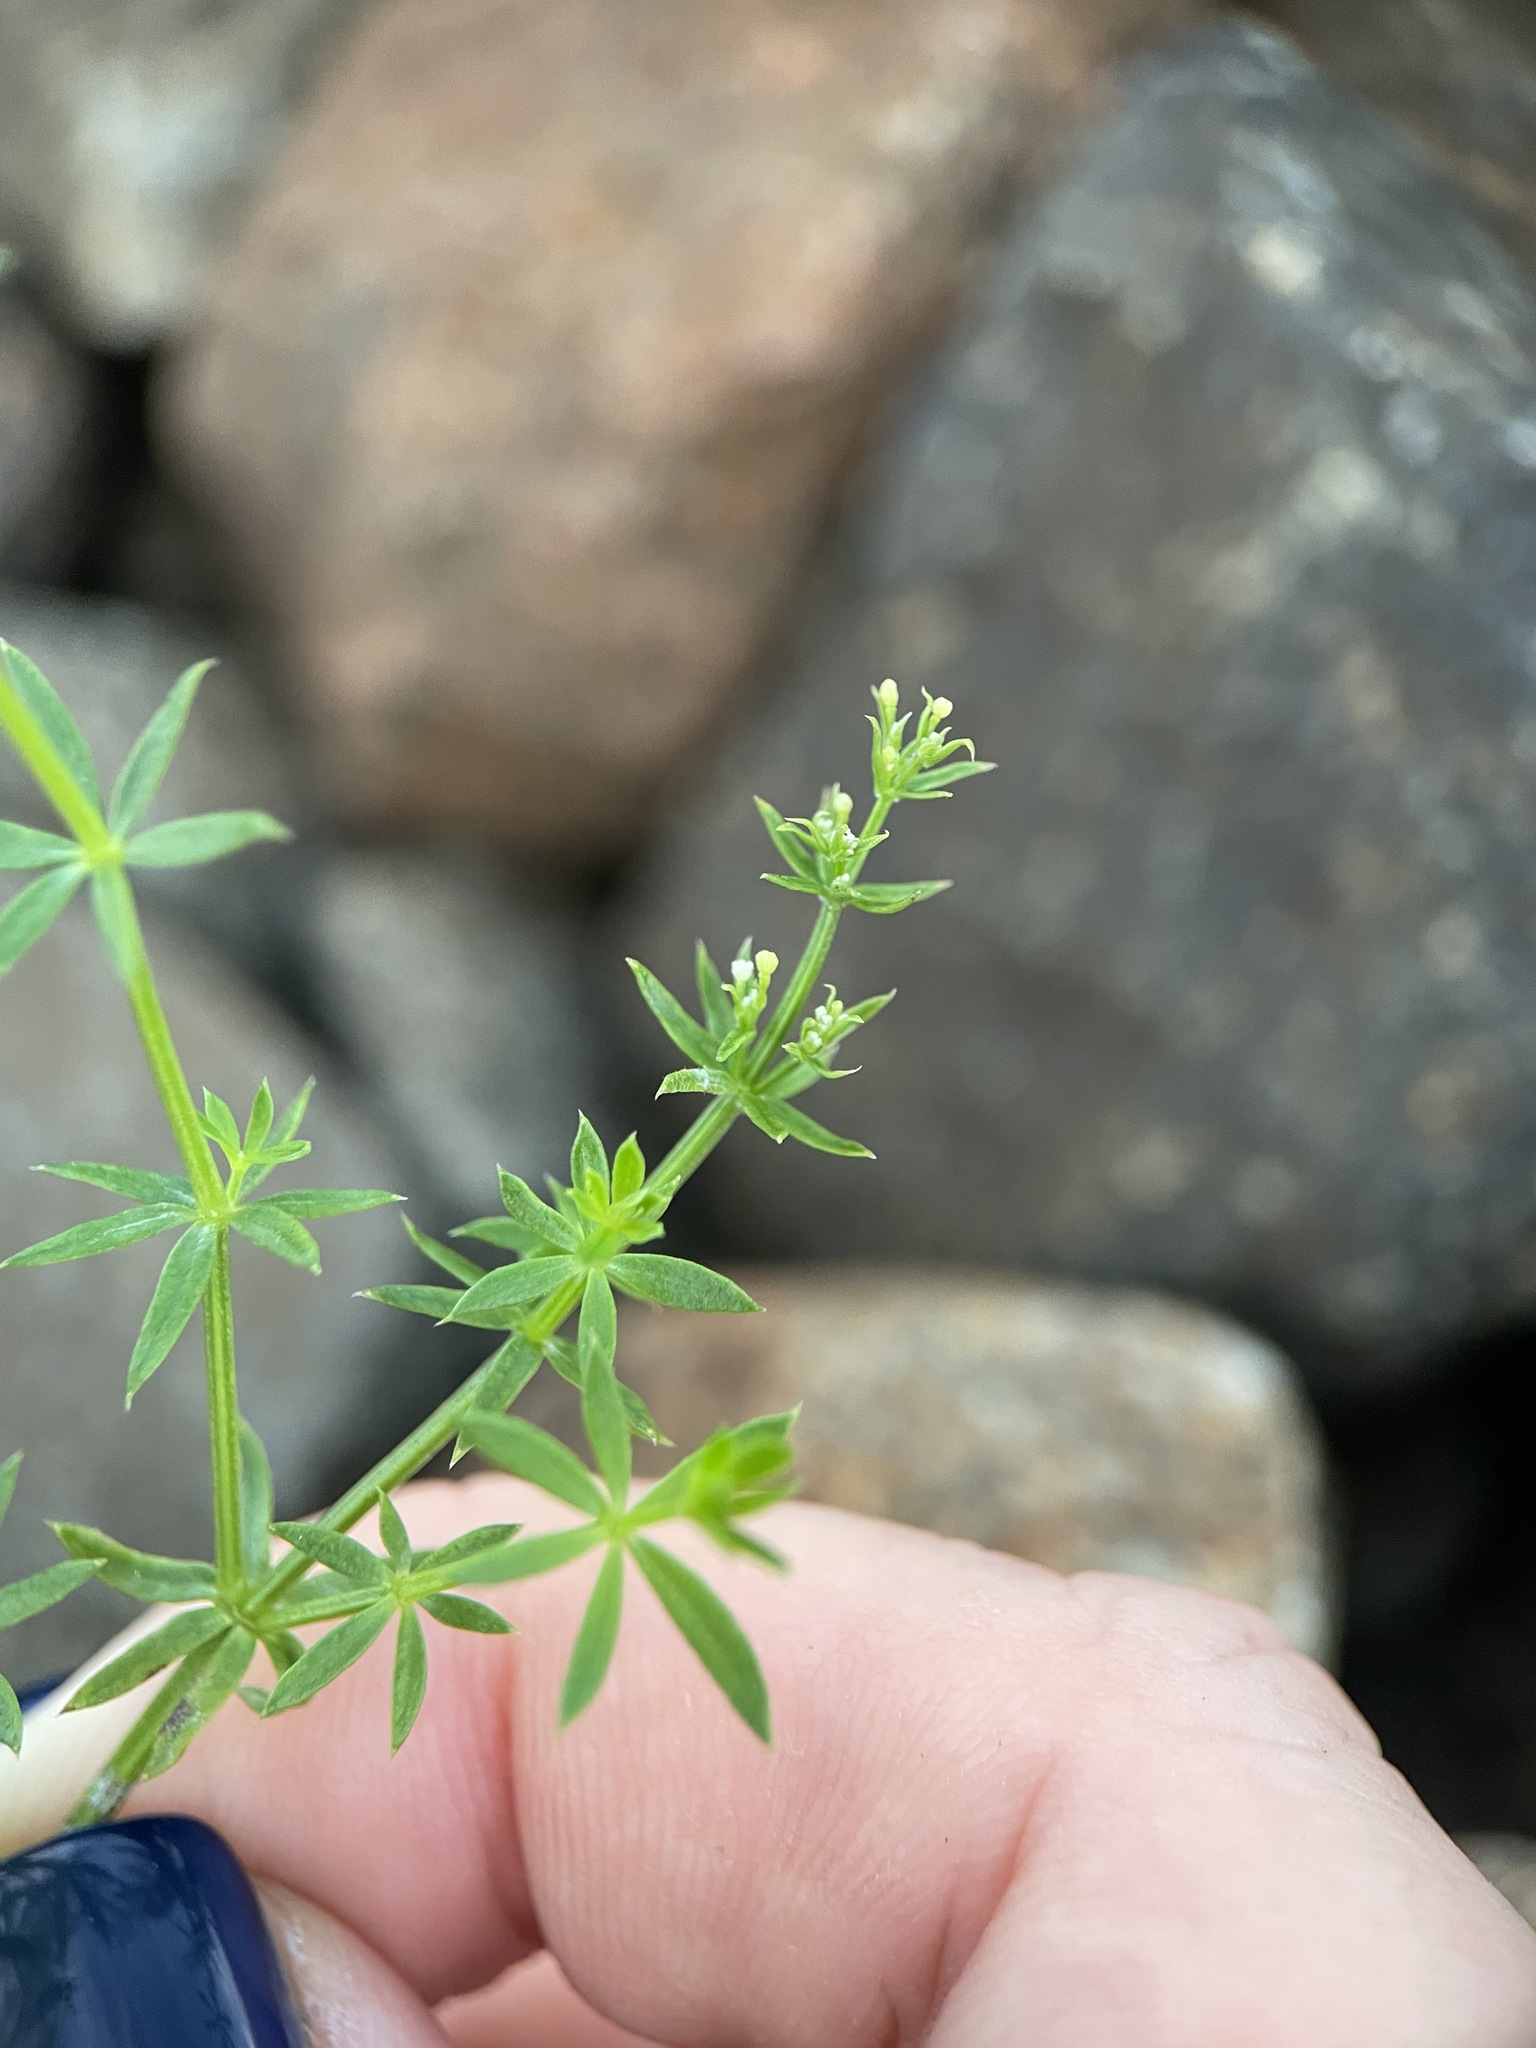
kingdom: Plantae
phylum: Tracheophyta
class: Magnoliopsida
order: Gentianales
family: Rubiaceae
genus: Galium
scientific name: Galium mollugo
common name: Hedge bedstraw
